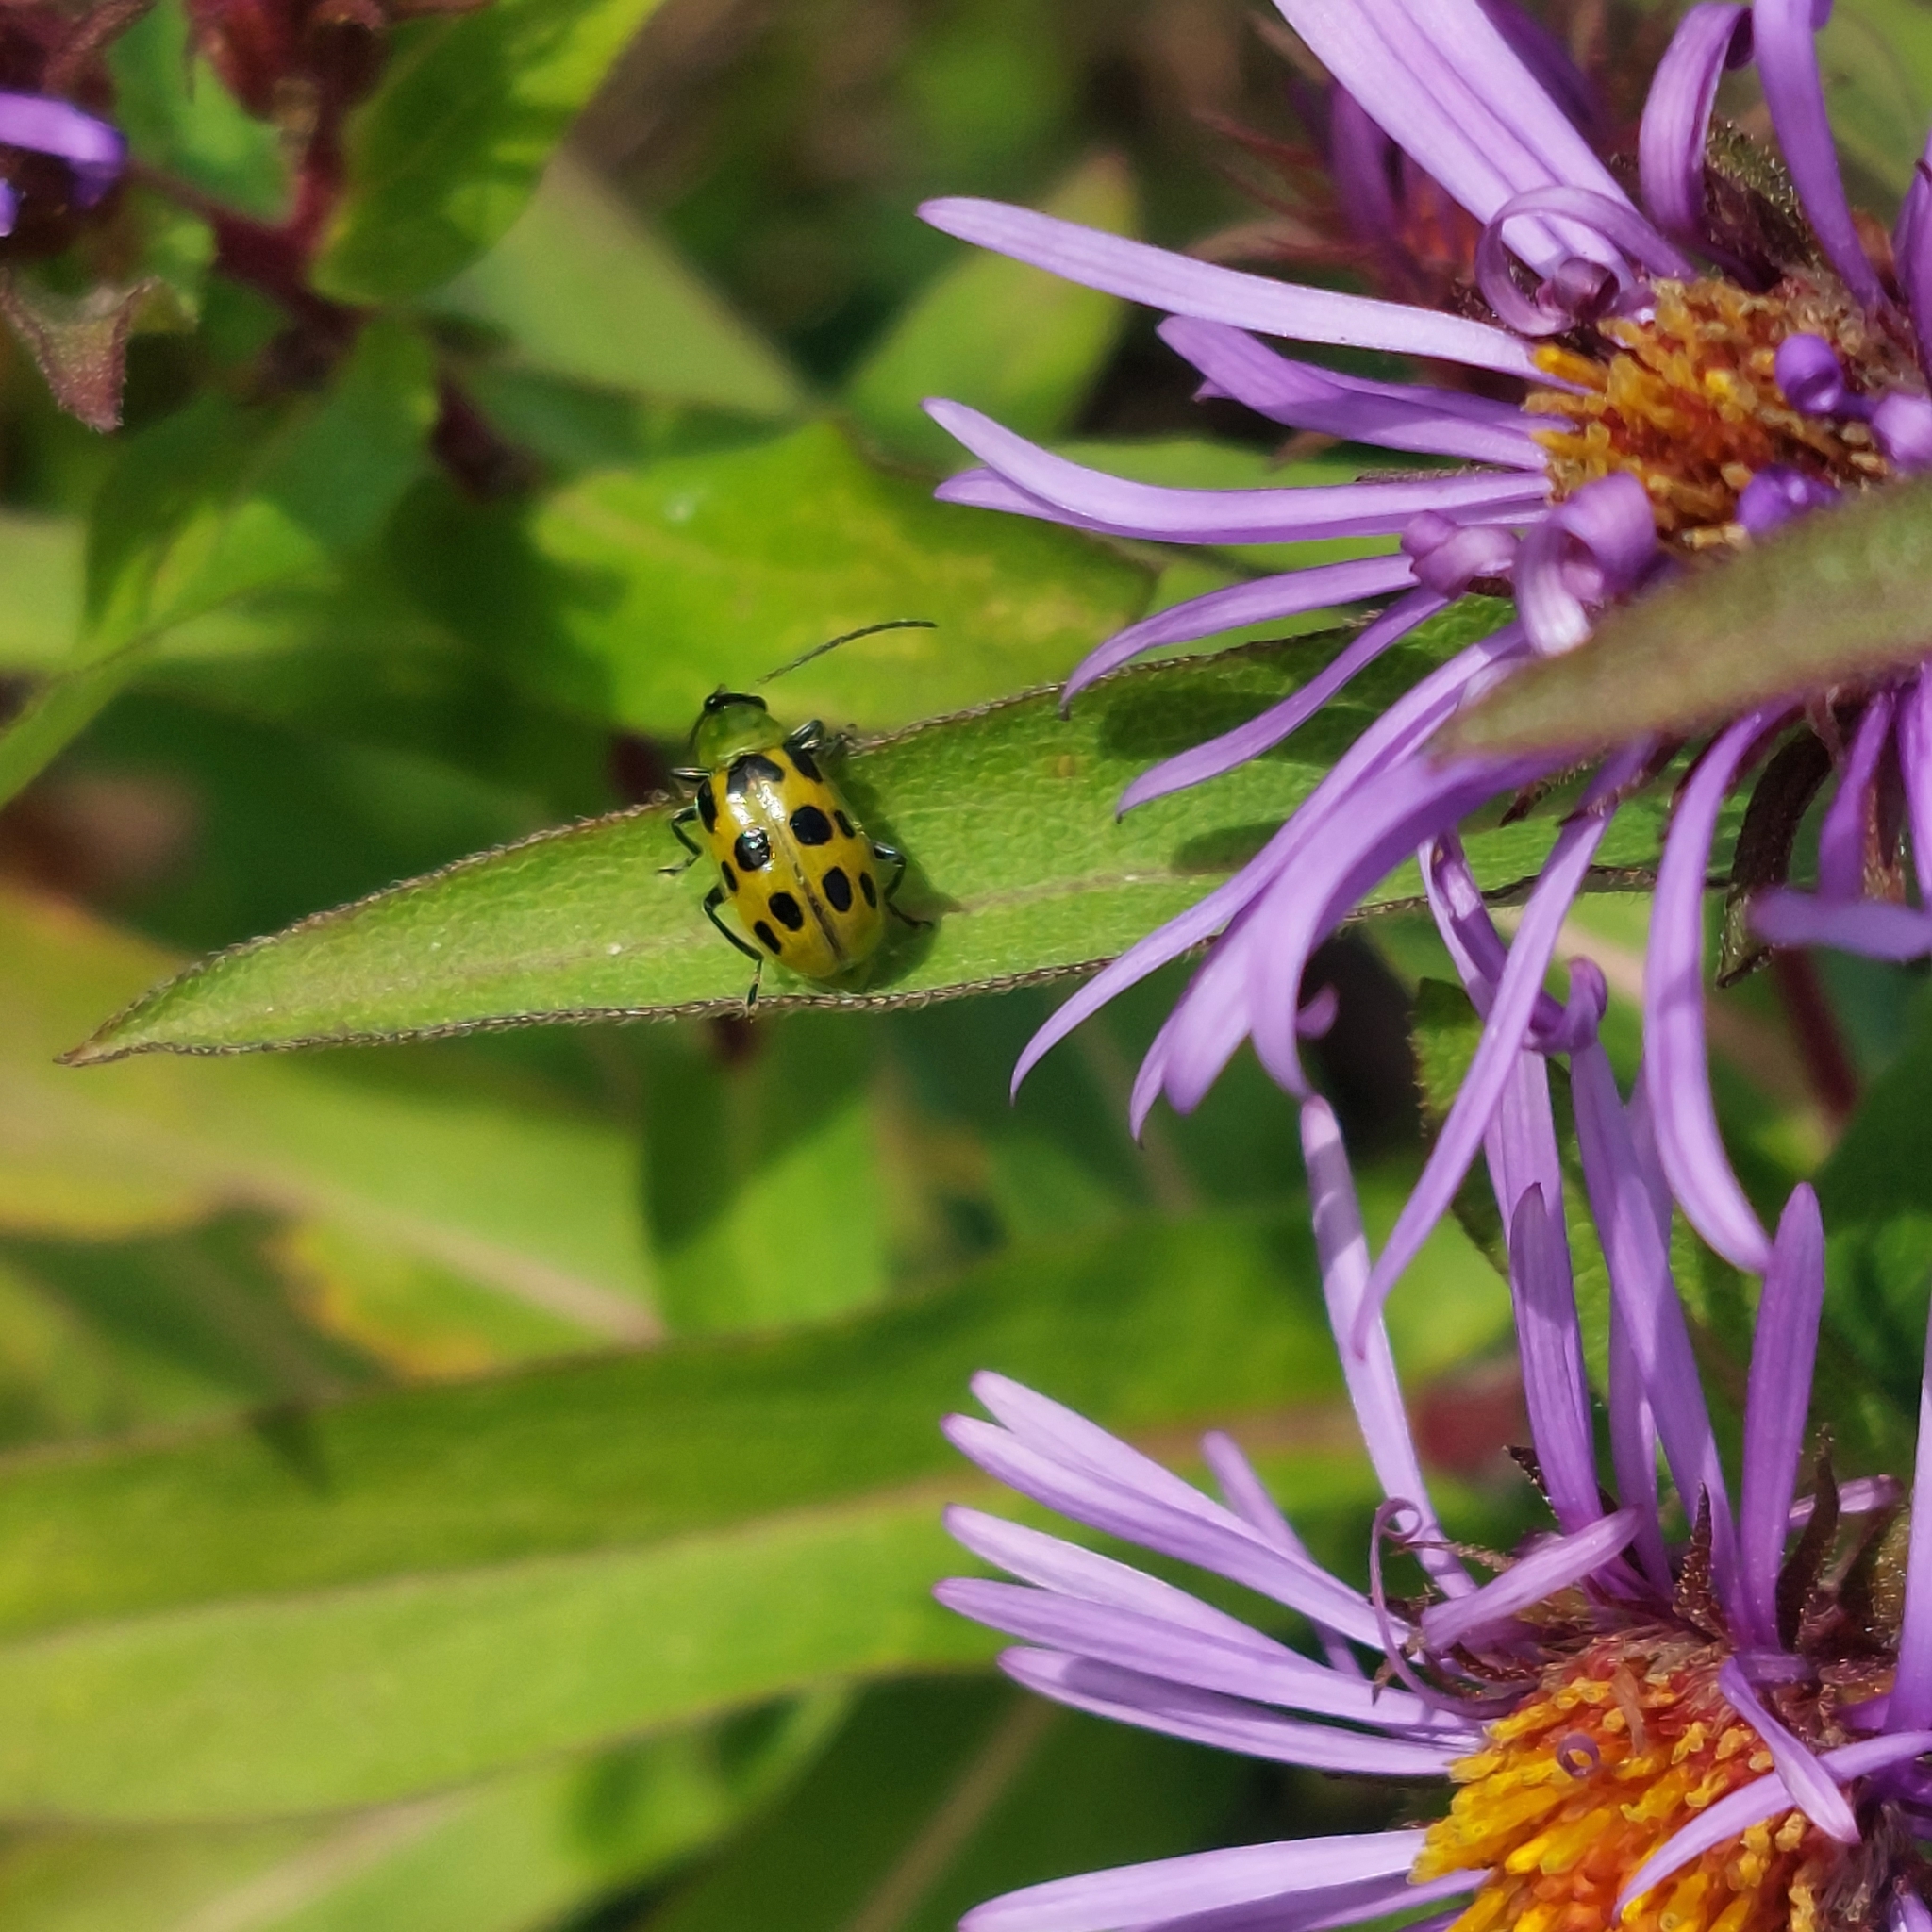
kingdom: Animalia
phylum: Arthropoda
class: Insecta
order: Coleoptera
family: Chrysomelidae
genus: Diabrotica
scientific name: Diabrotica undecimpunctata
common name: Spotted cucumber beetle
